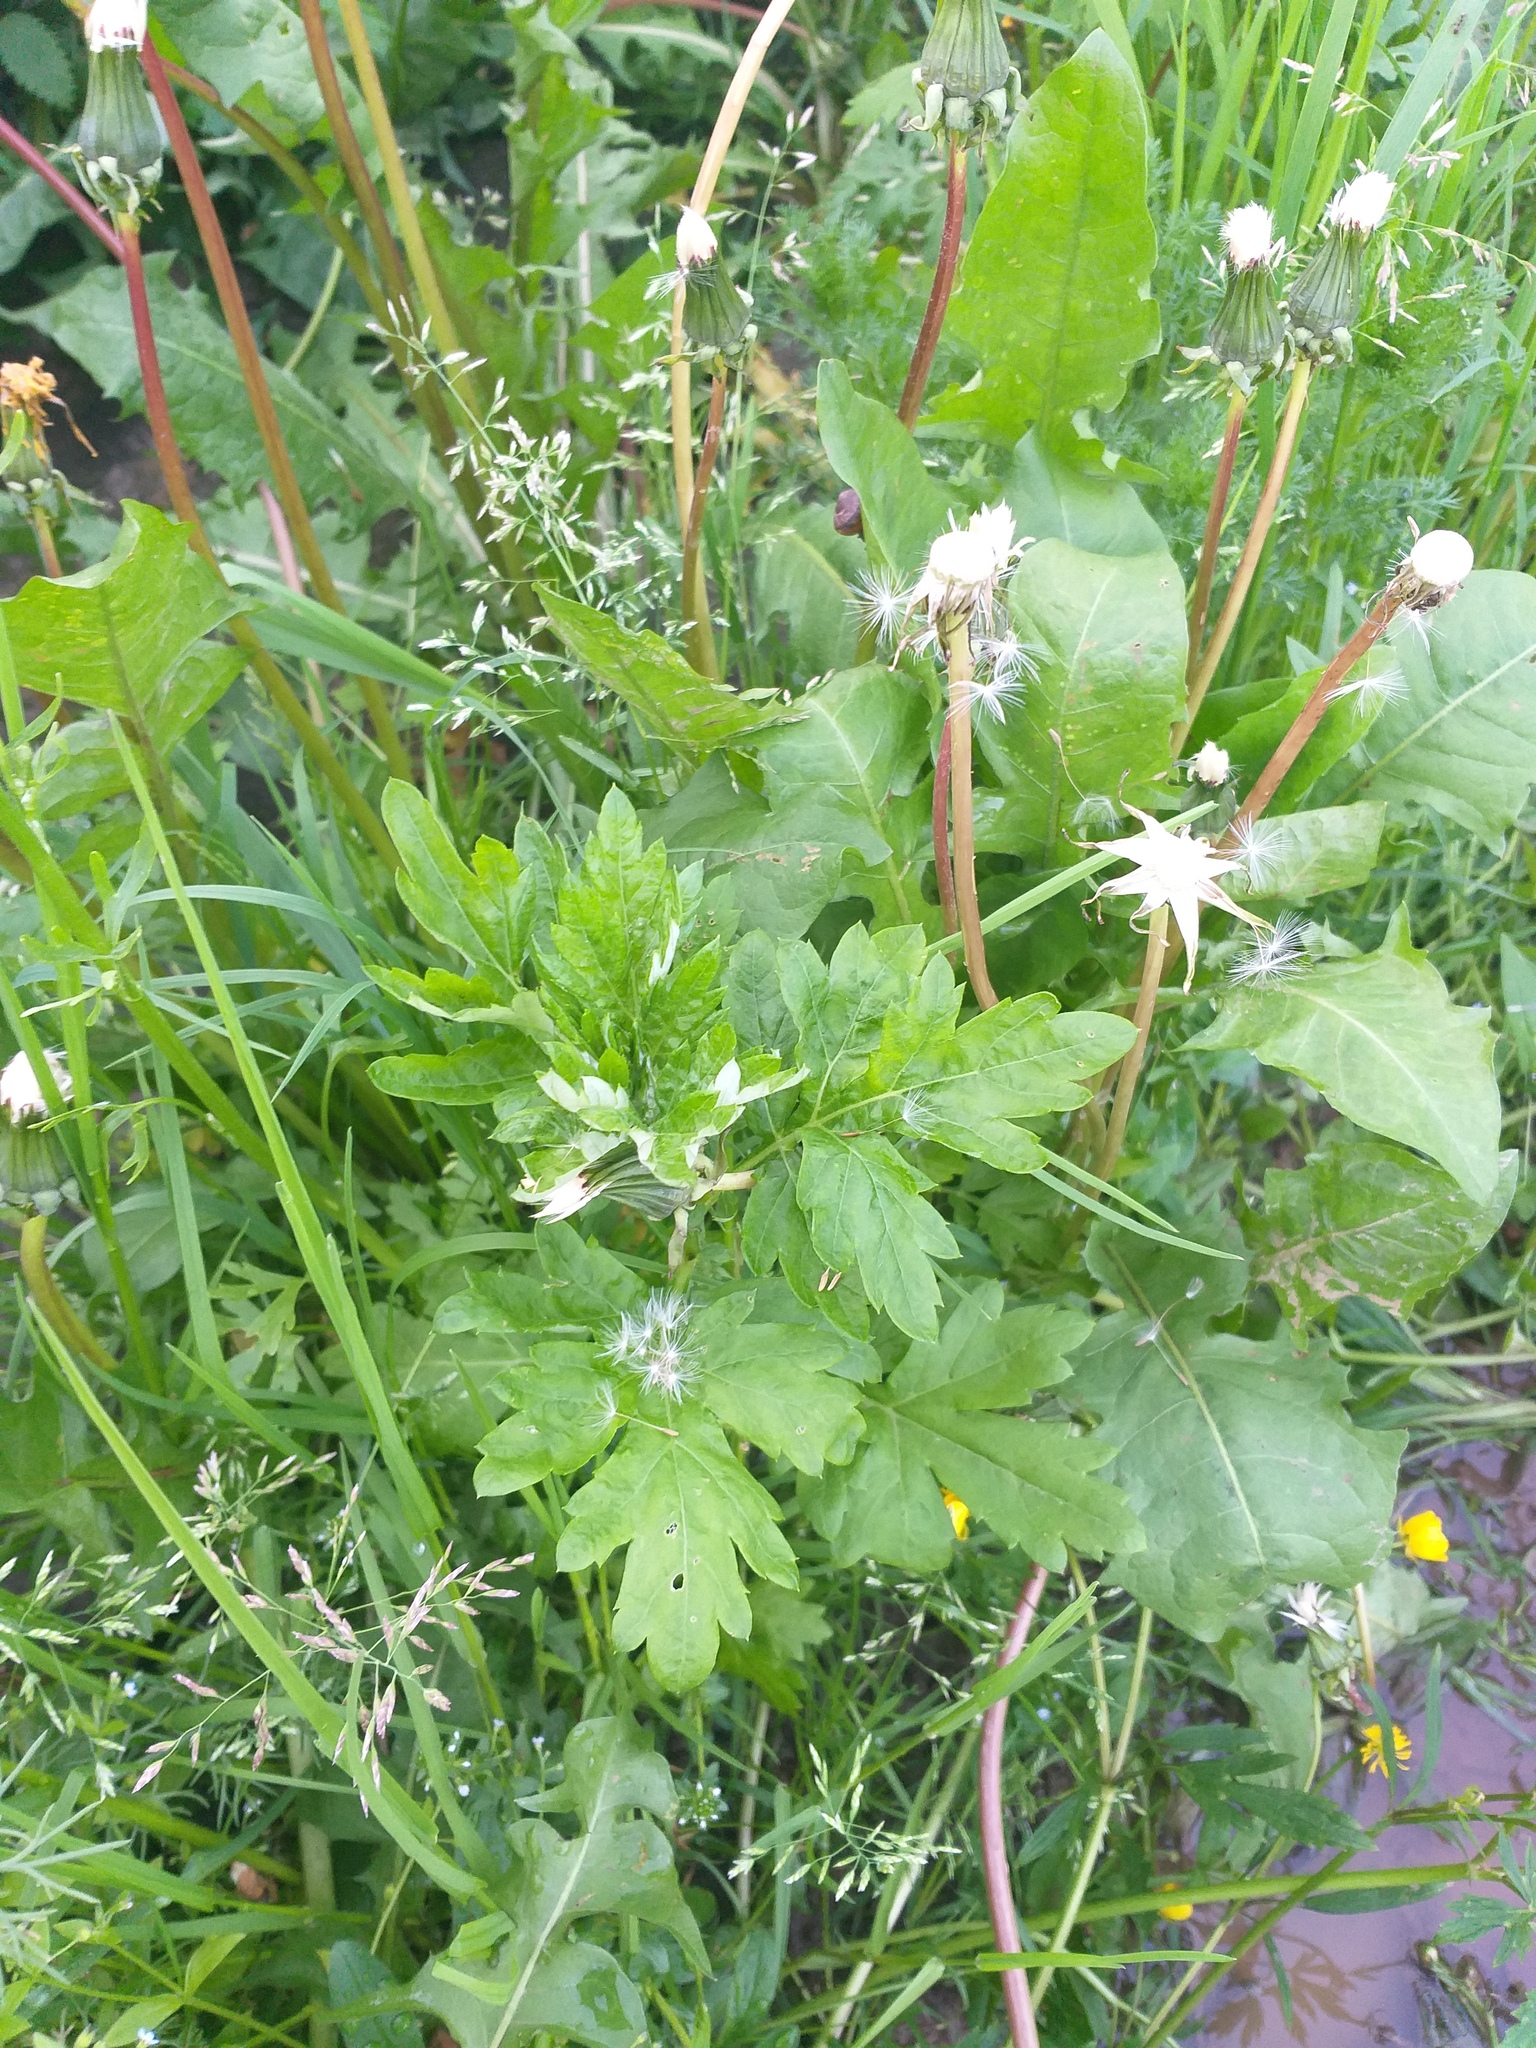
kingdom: Plantae
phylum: Tracheophyta
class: Magnoliopsida
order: Asterales
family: Asteraceae
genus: Artemisia
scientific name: Artemisia vulgaris
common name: Mugwort
